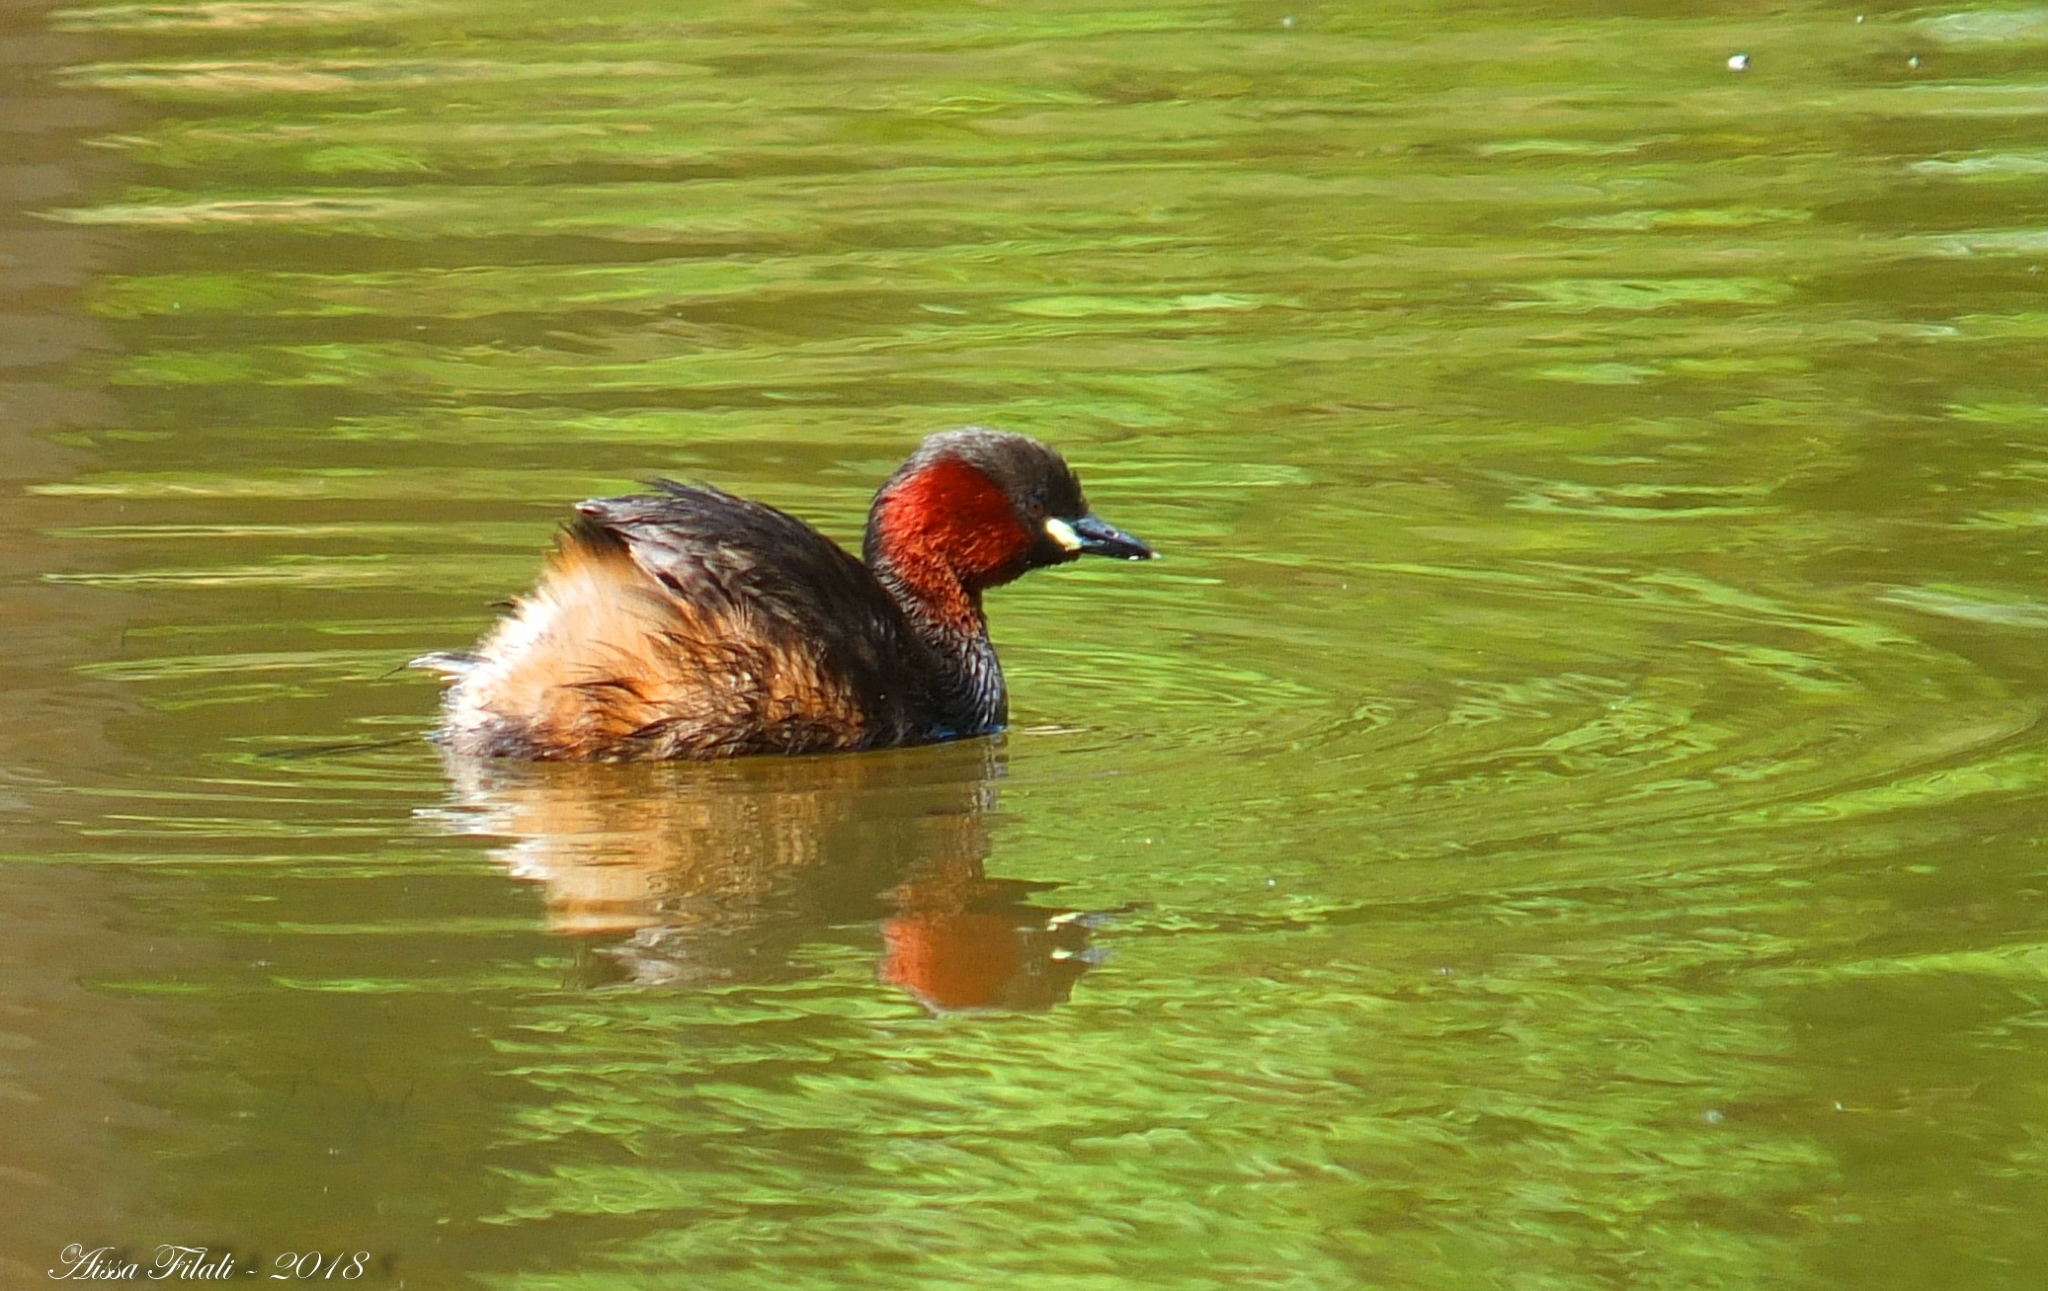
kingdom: Animalia
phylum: Chordata
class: Aves
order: Podicipediformes
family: Podicipedidae
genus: Tachybaptus
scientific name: Tachybaptus ruficollis
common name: Little grebe
